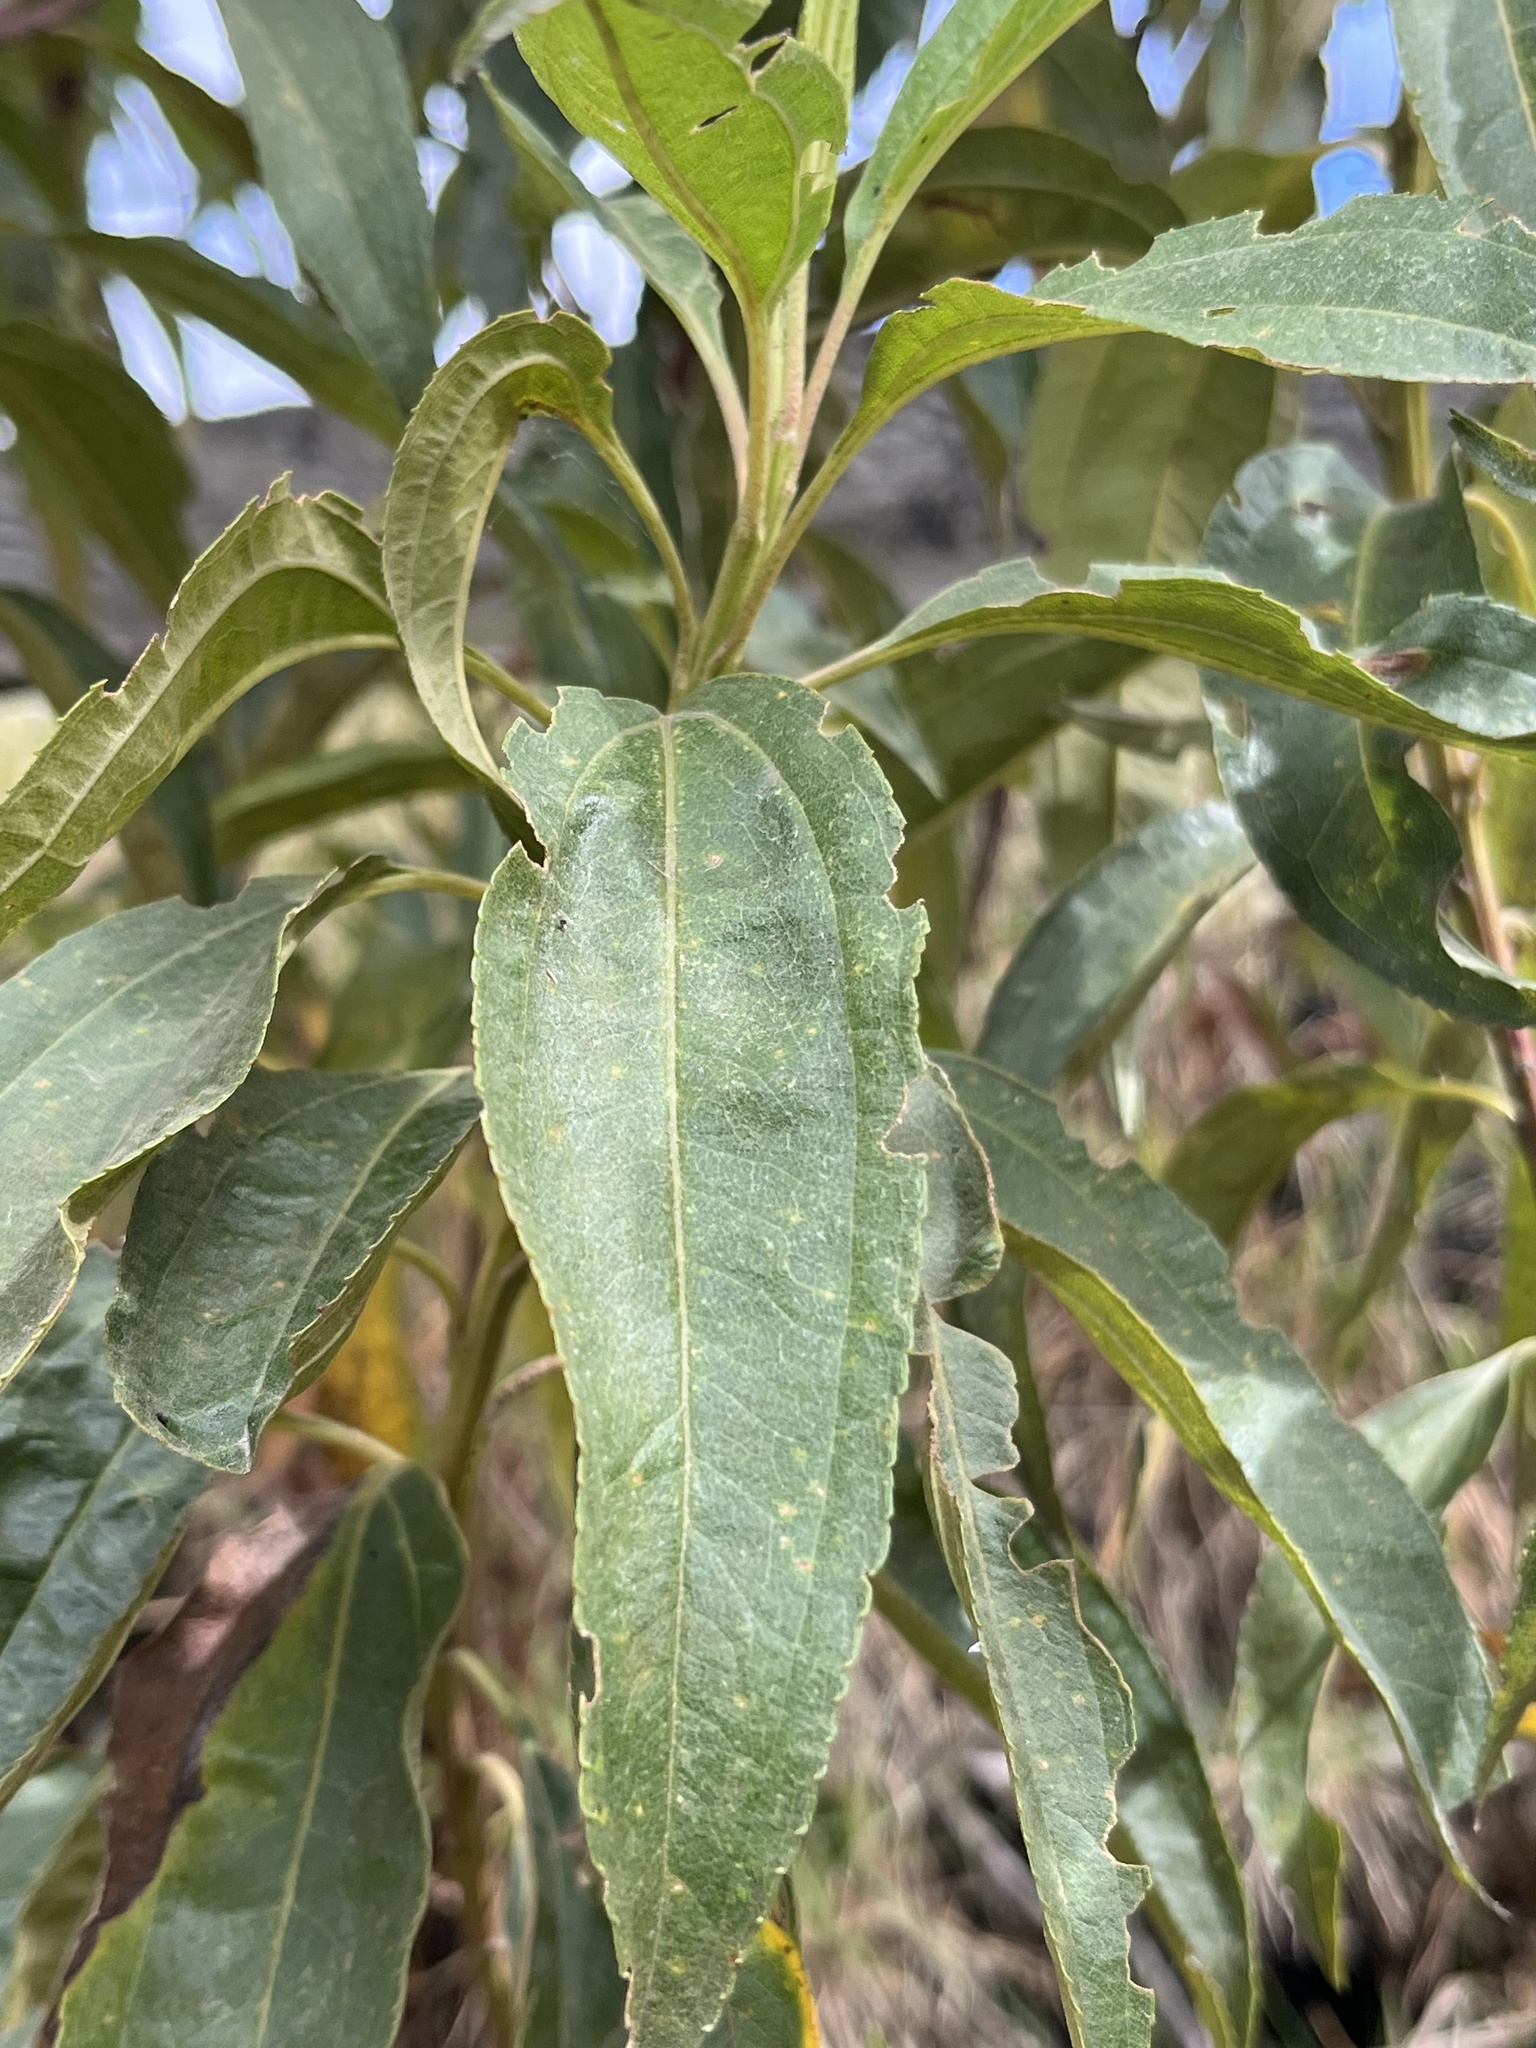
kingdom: Plantae
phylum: Tracheophyta
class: Magnoliopsida
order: Asterales
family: Asteraceae
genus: Baccharis
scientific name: Baccharis latifolia
